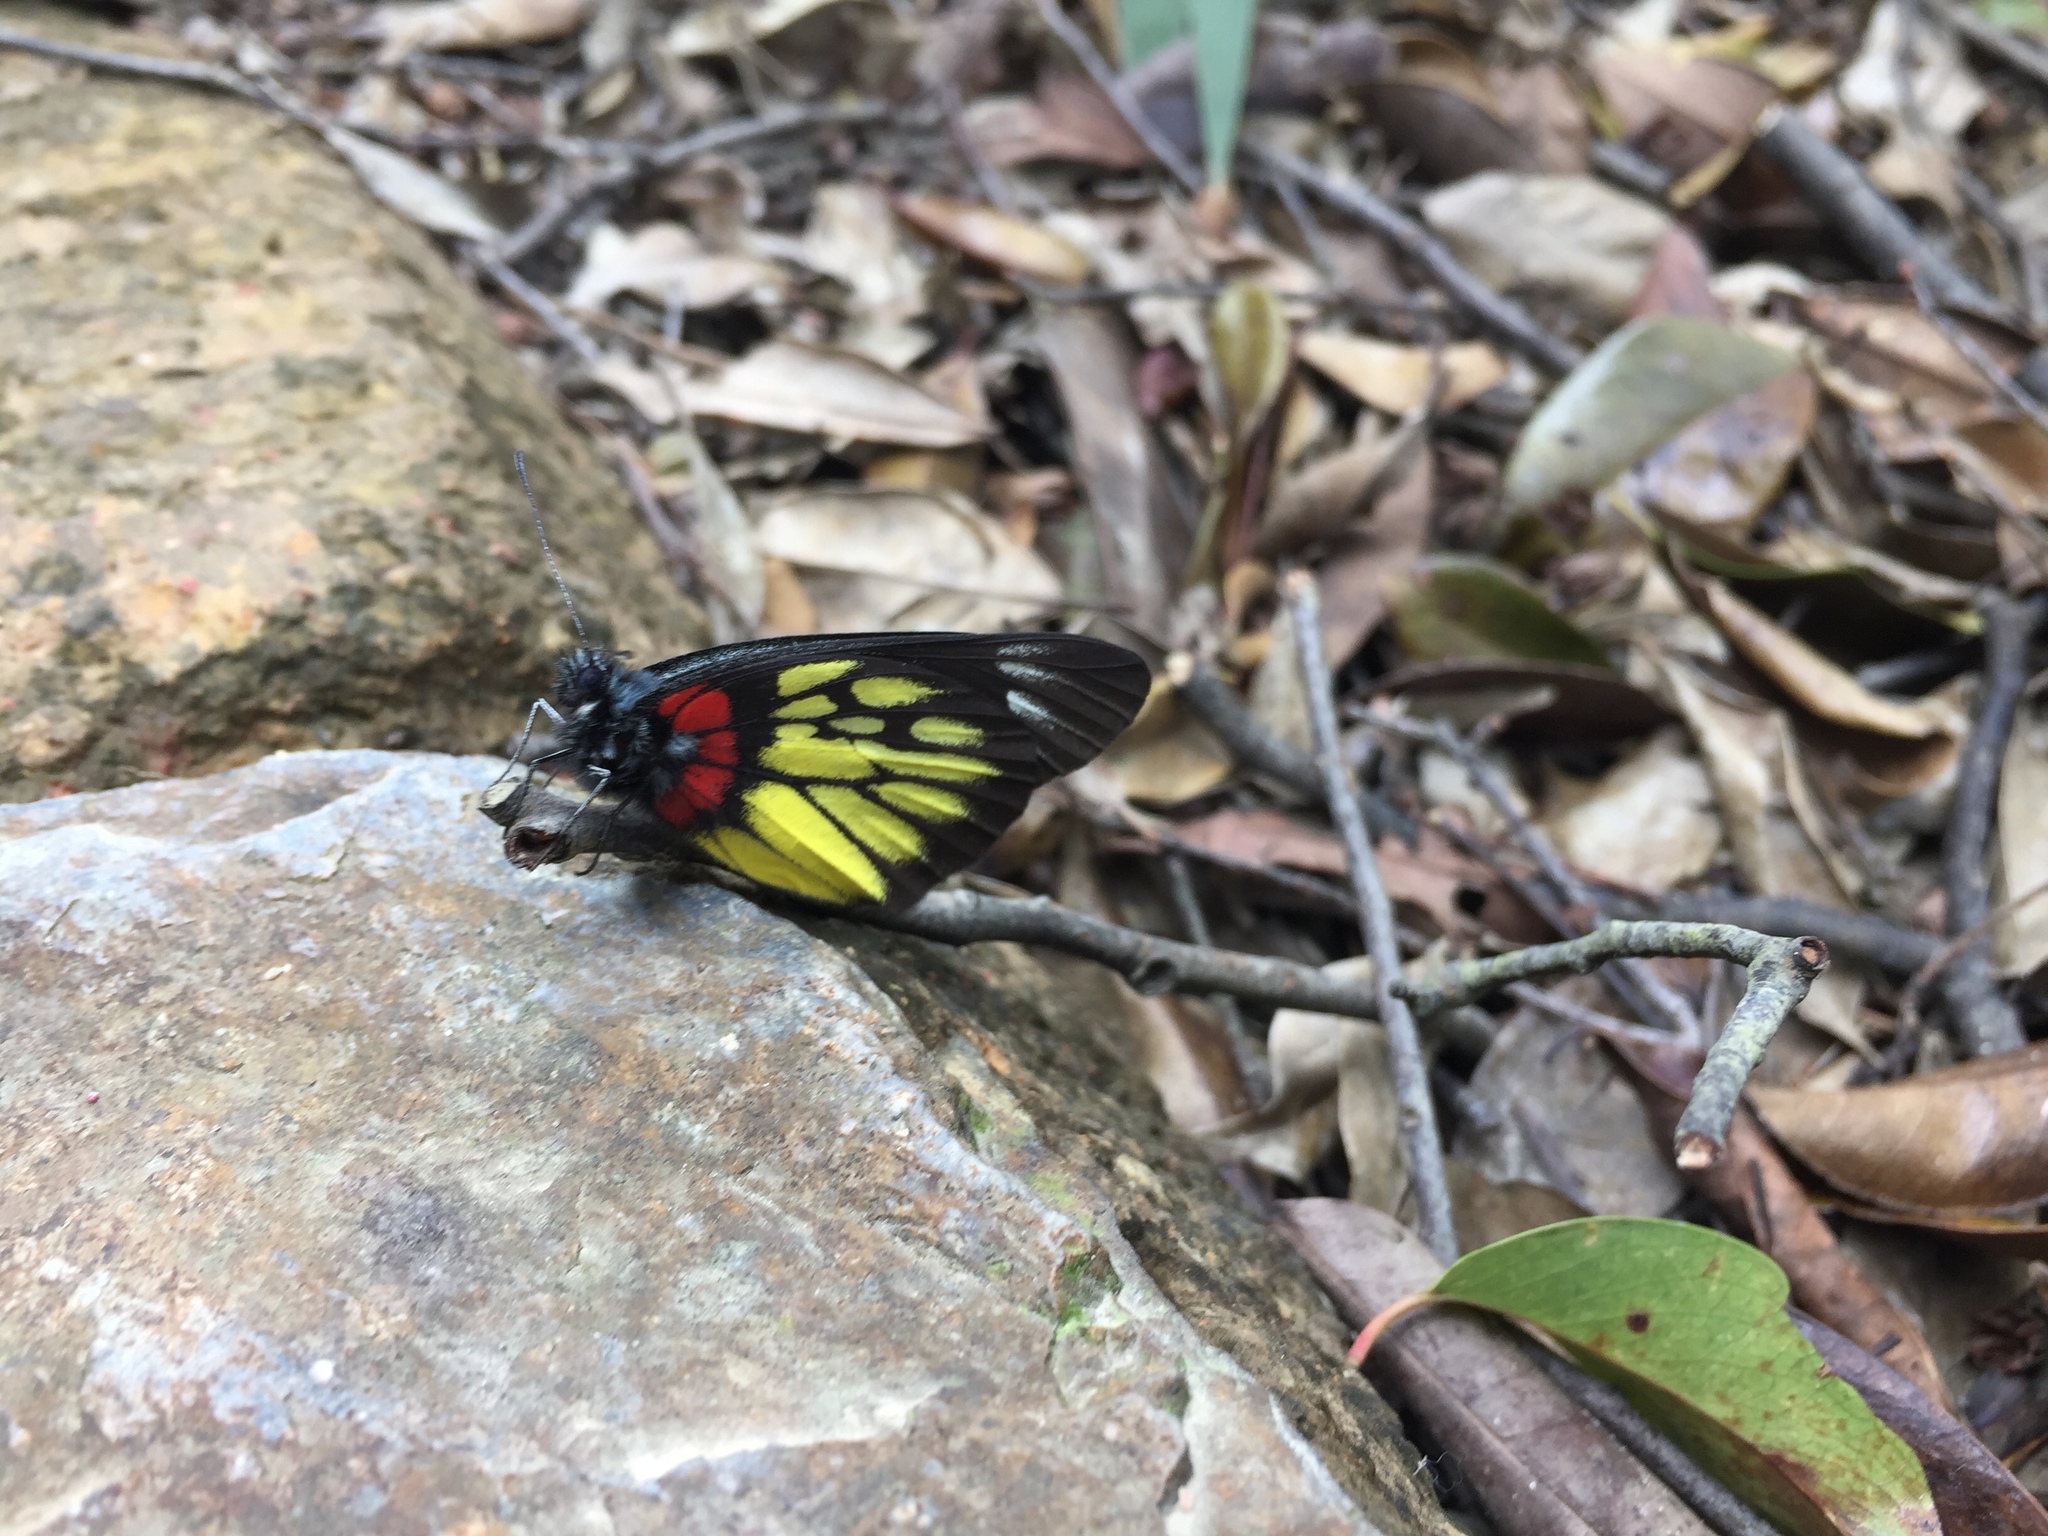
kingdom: Animalia
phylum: Arthropoda
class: Insecta
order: Lepidoptera
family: Pieridae
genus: Delias
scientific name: Delias pasithoe
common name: Red-base jezebel
